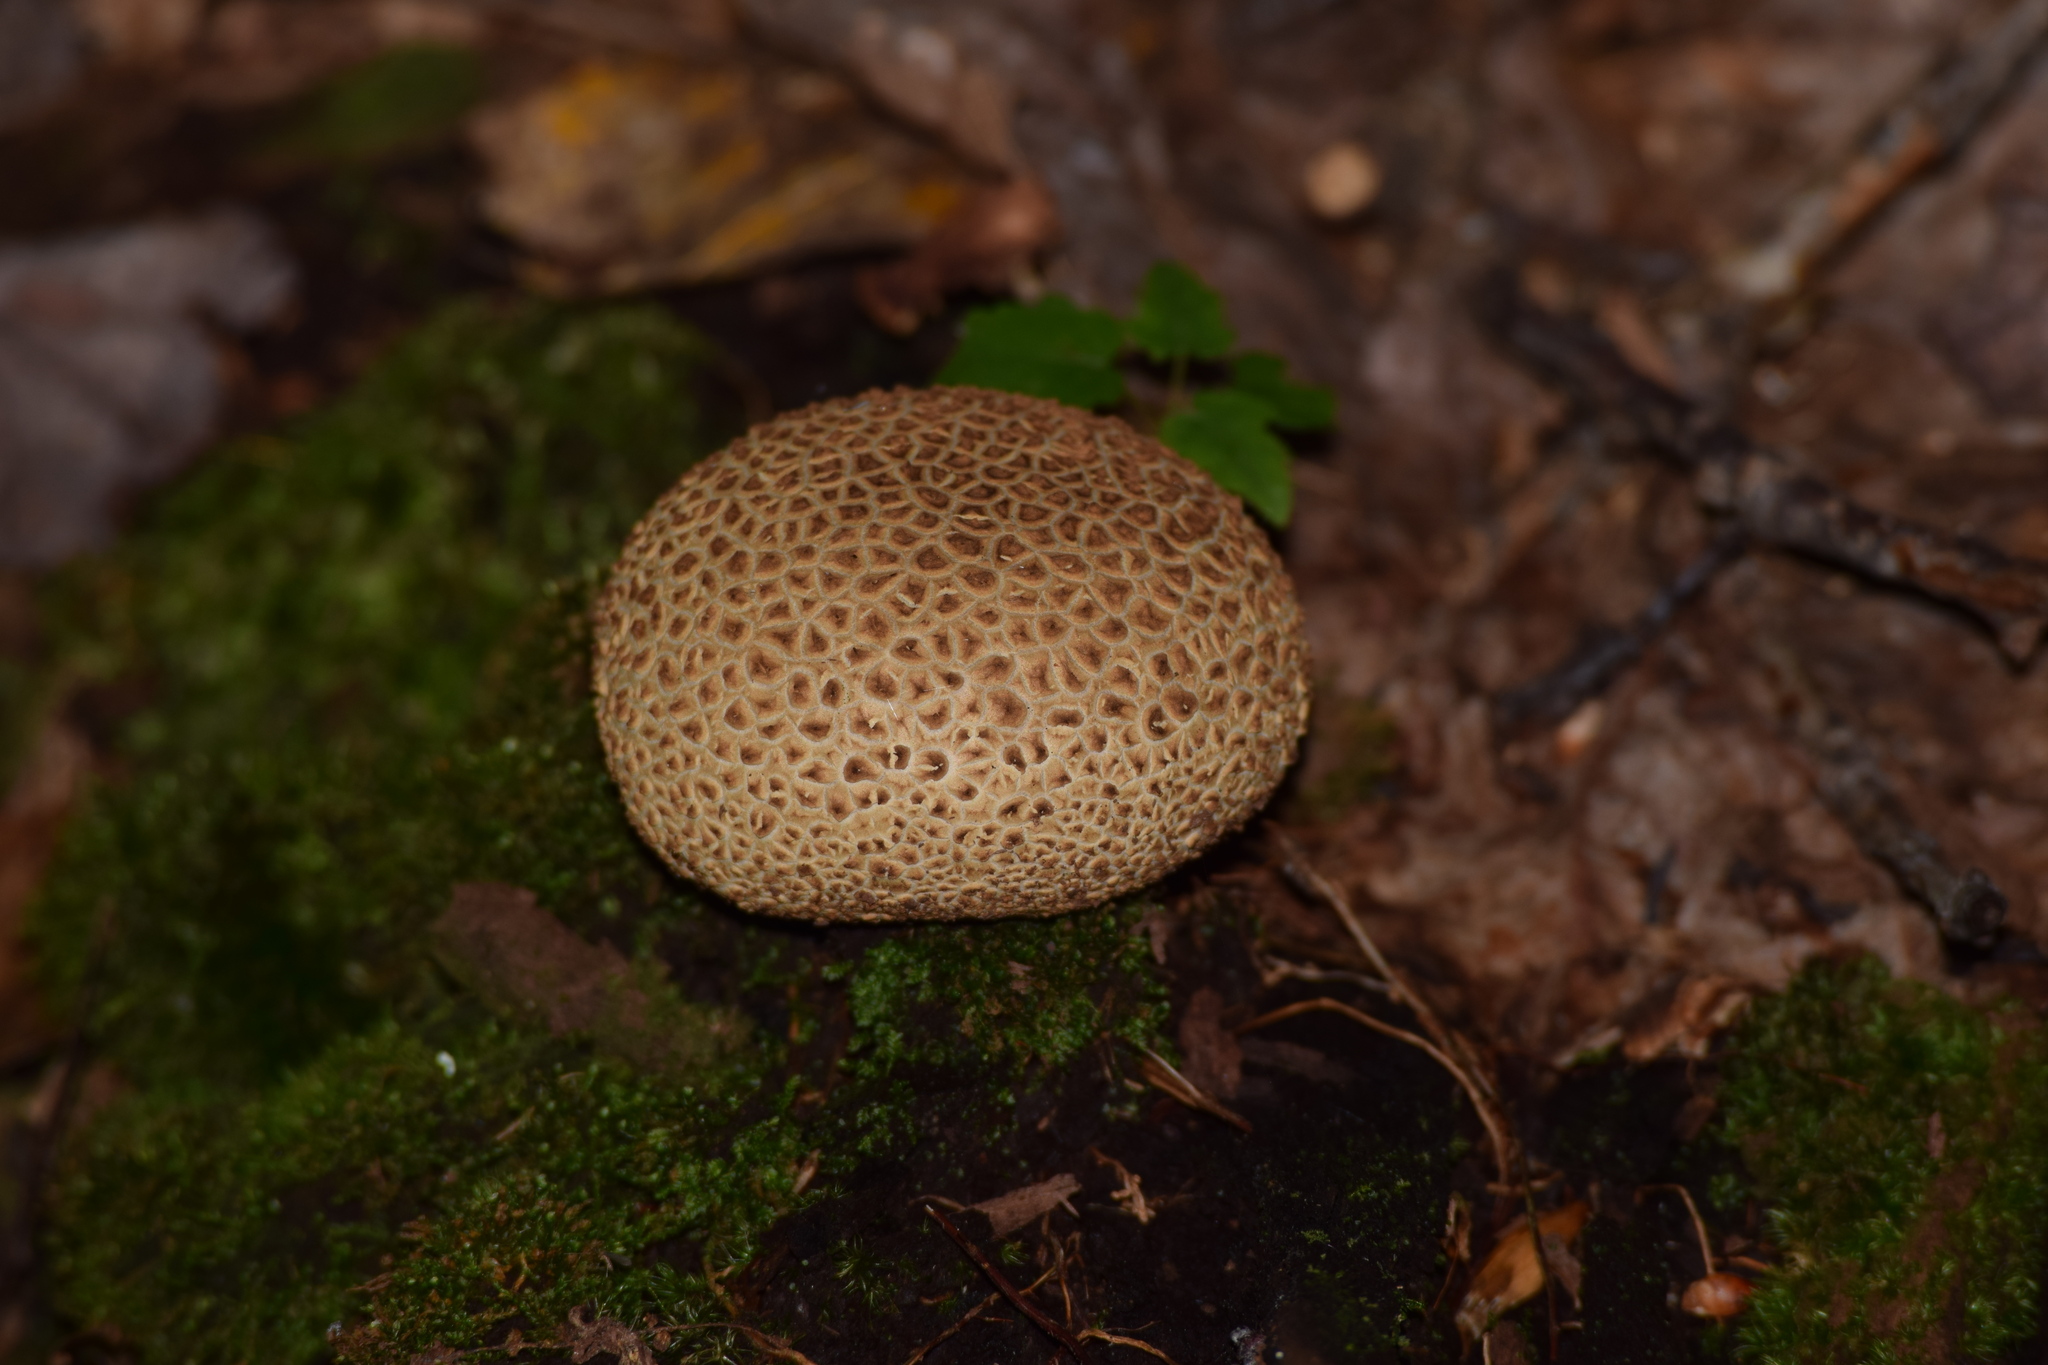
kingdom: Fungi
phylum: Basidiomycota
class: Agaricomycetes
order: Boletales
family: Sclerodermataceae
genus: Scleroderma
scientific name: Scleroderma citrinum
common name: Common earthball
